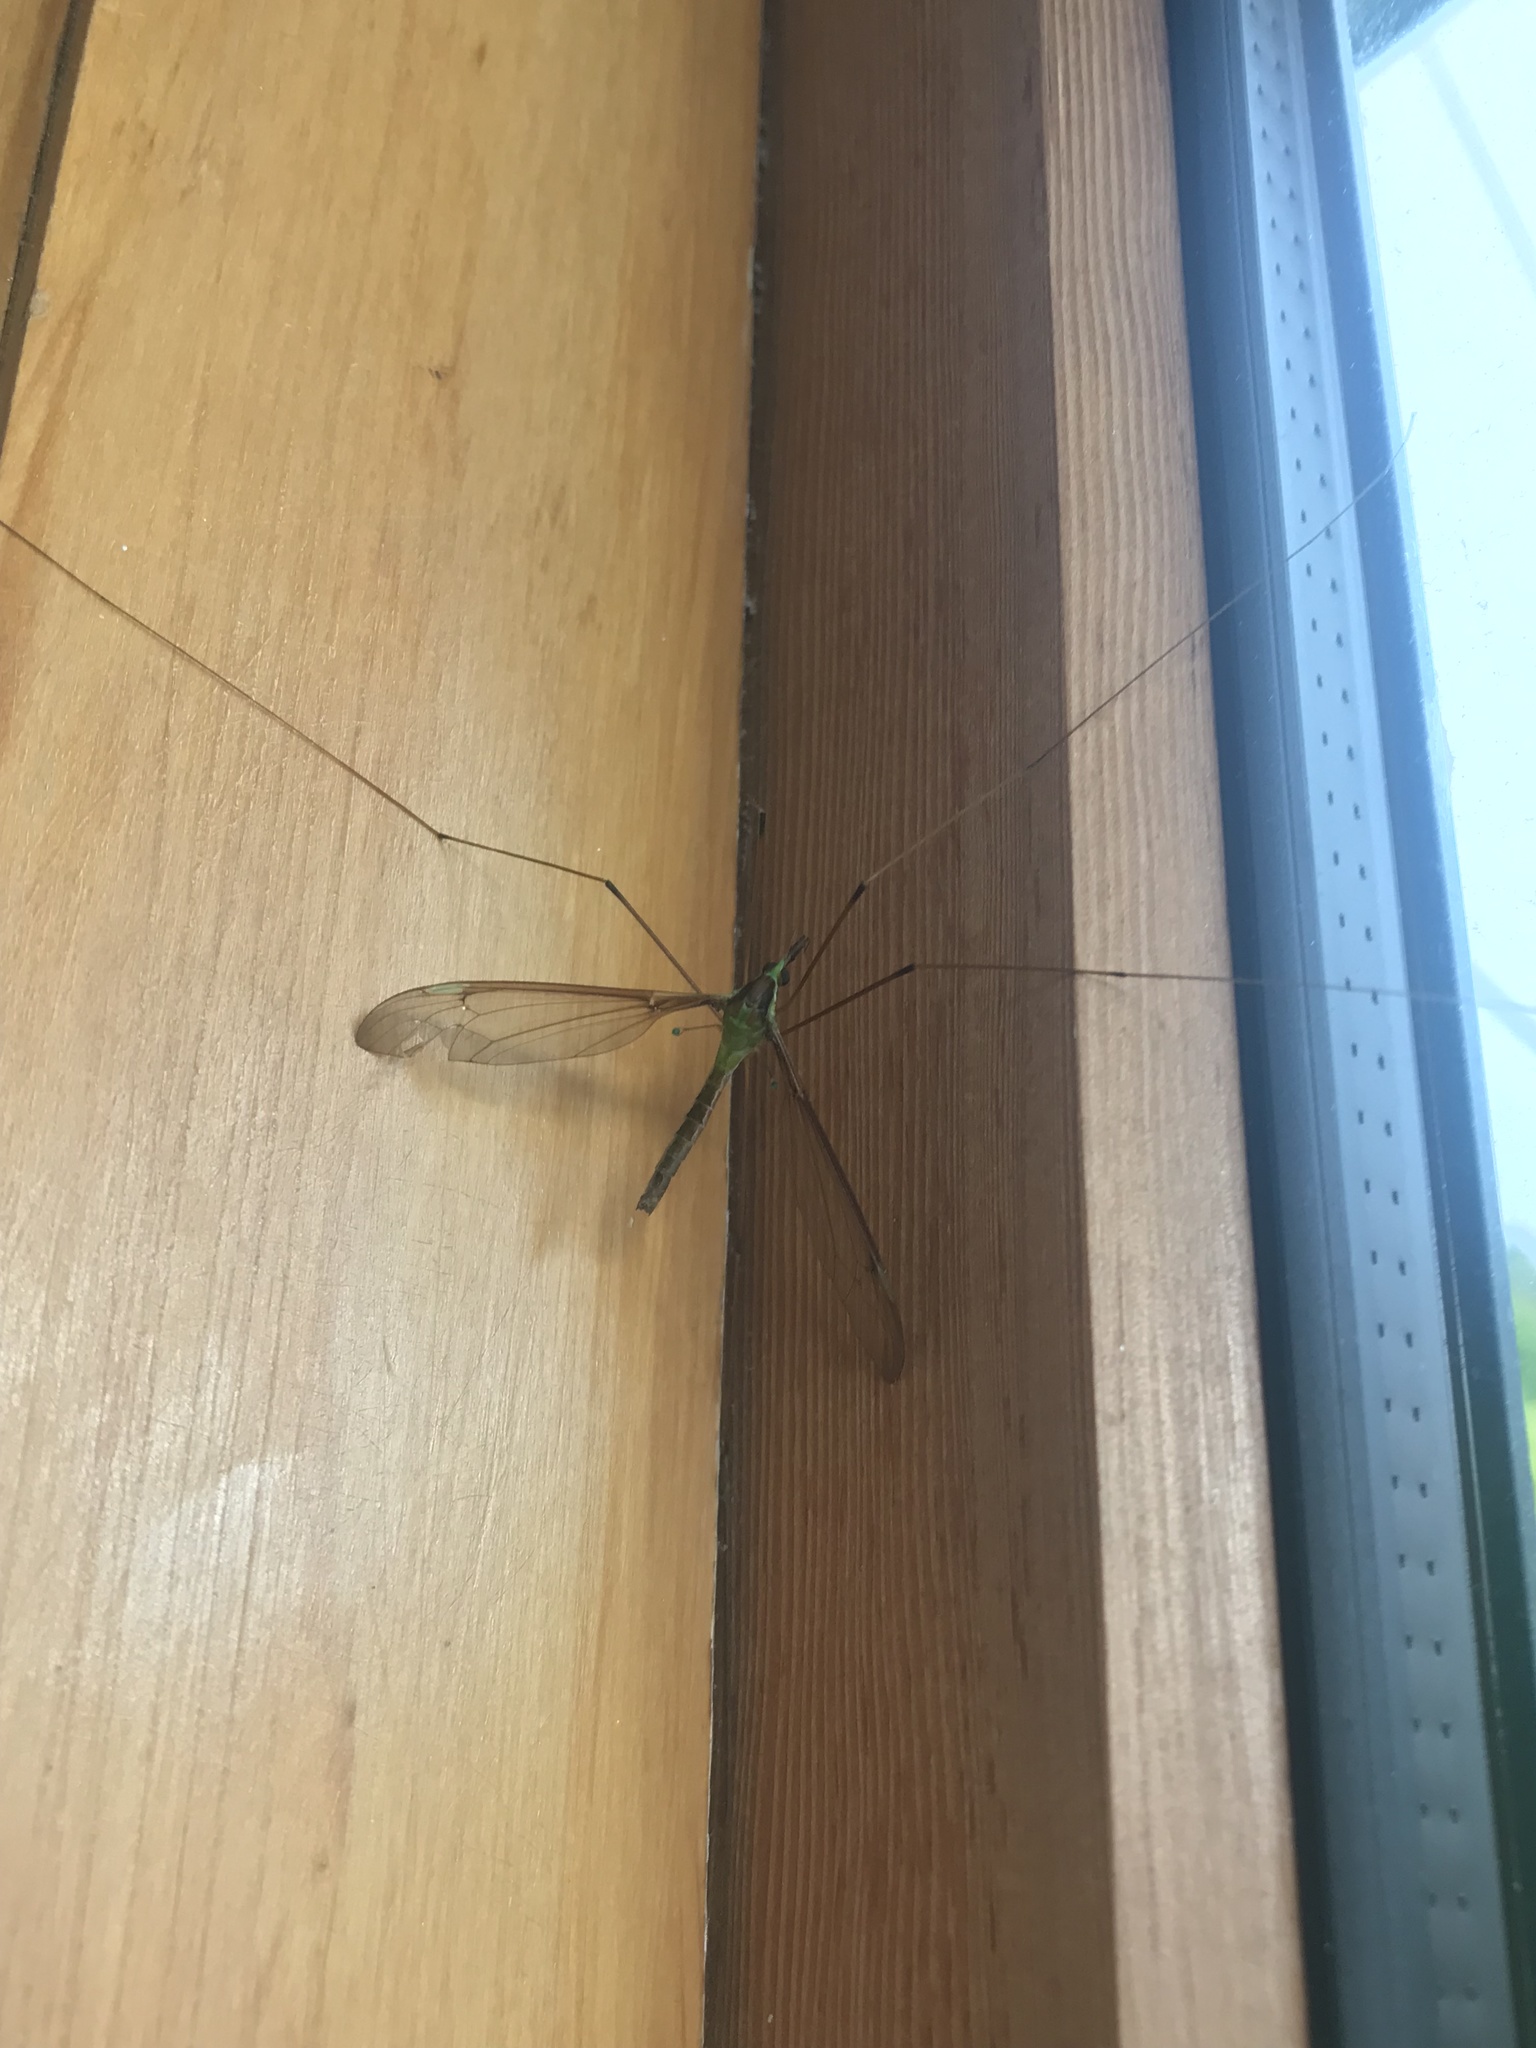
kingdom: Animalia
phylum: Arthropoda
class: Insecta
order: Diptera
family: Tipulidae
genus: Leptotarsus
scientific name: Leptotarsus albistigma
